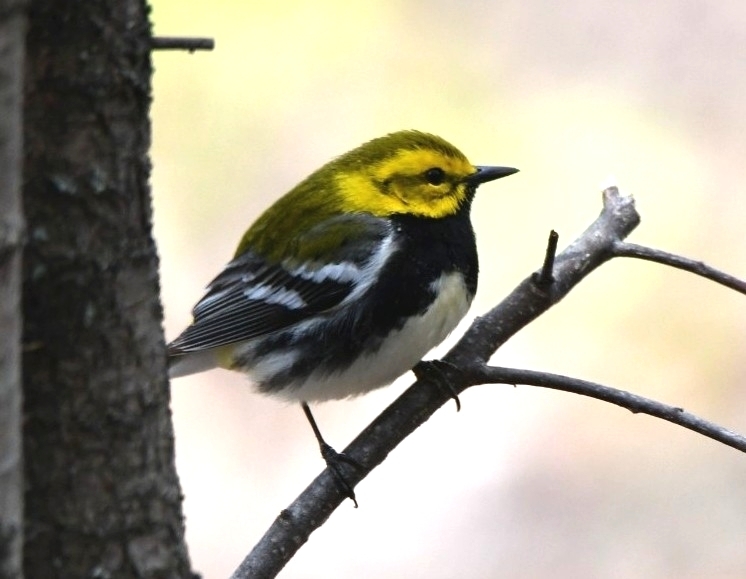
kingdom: Animalia
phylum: Chordata
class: Aves
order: Passeriformes
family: Parulidae
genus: Setophaga
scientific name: Setophaga virens
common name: Black-throated green warbler
